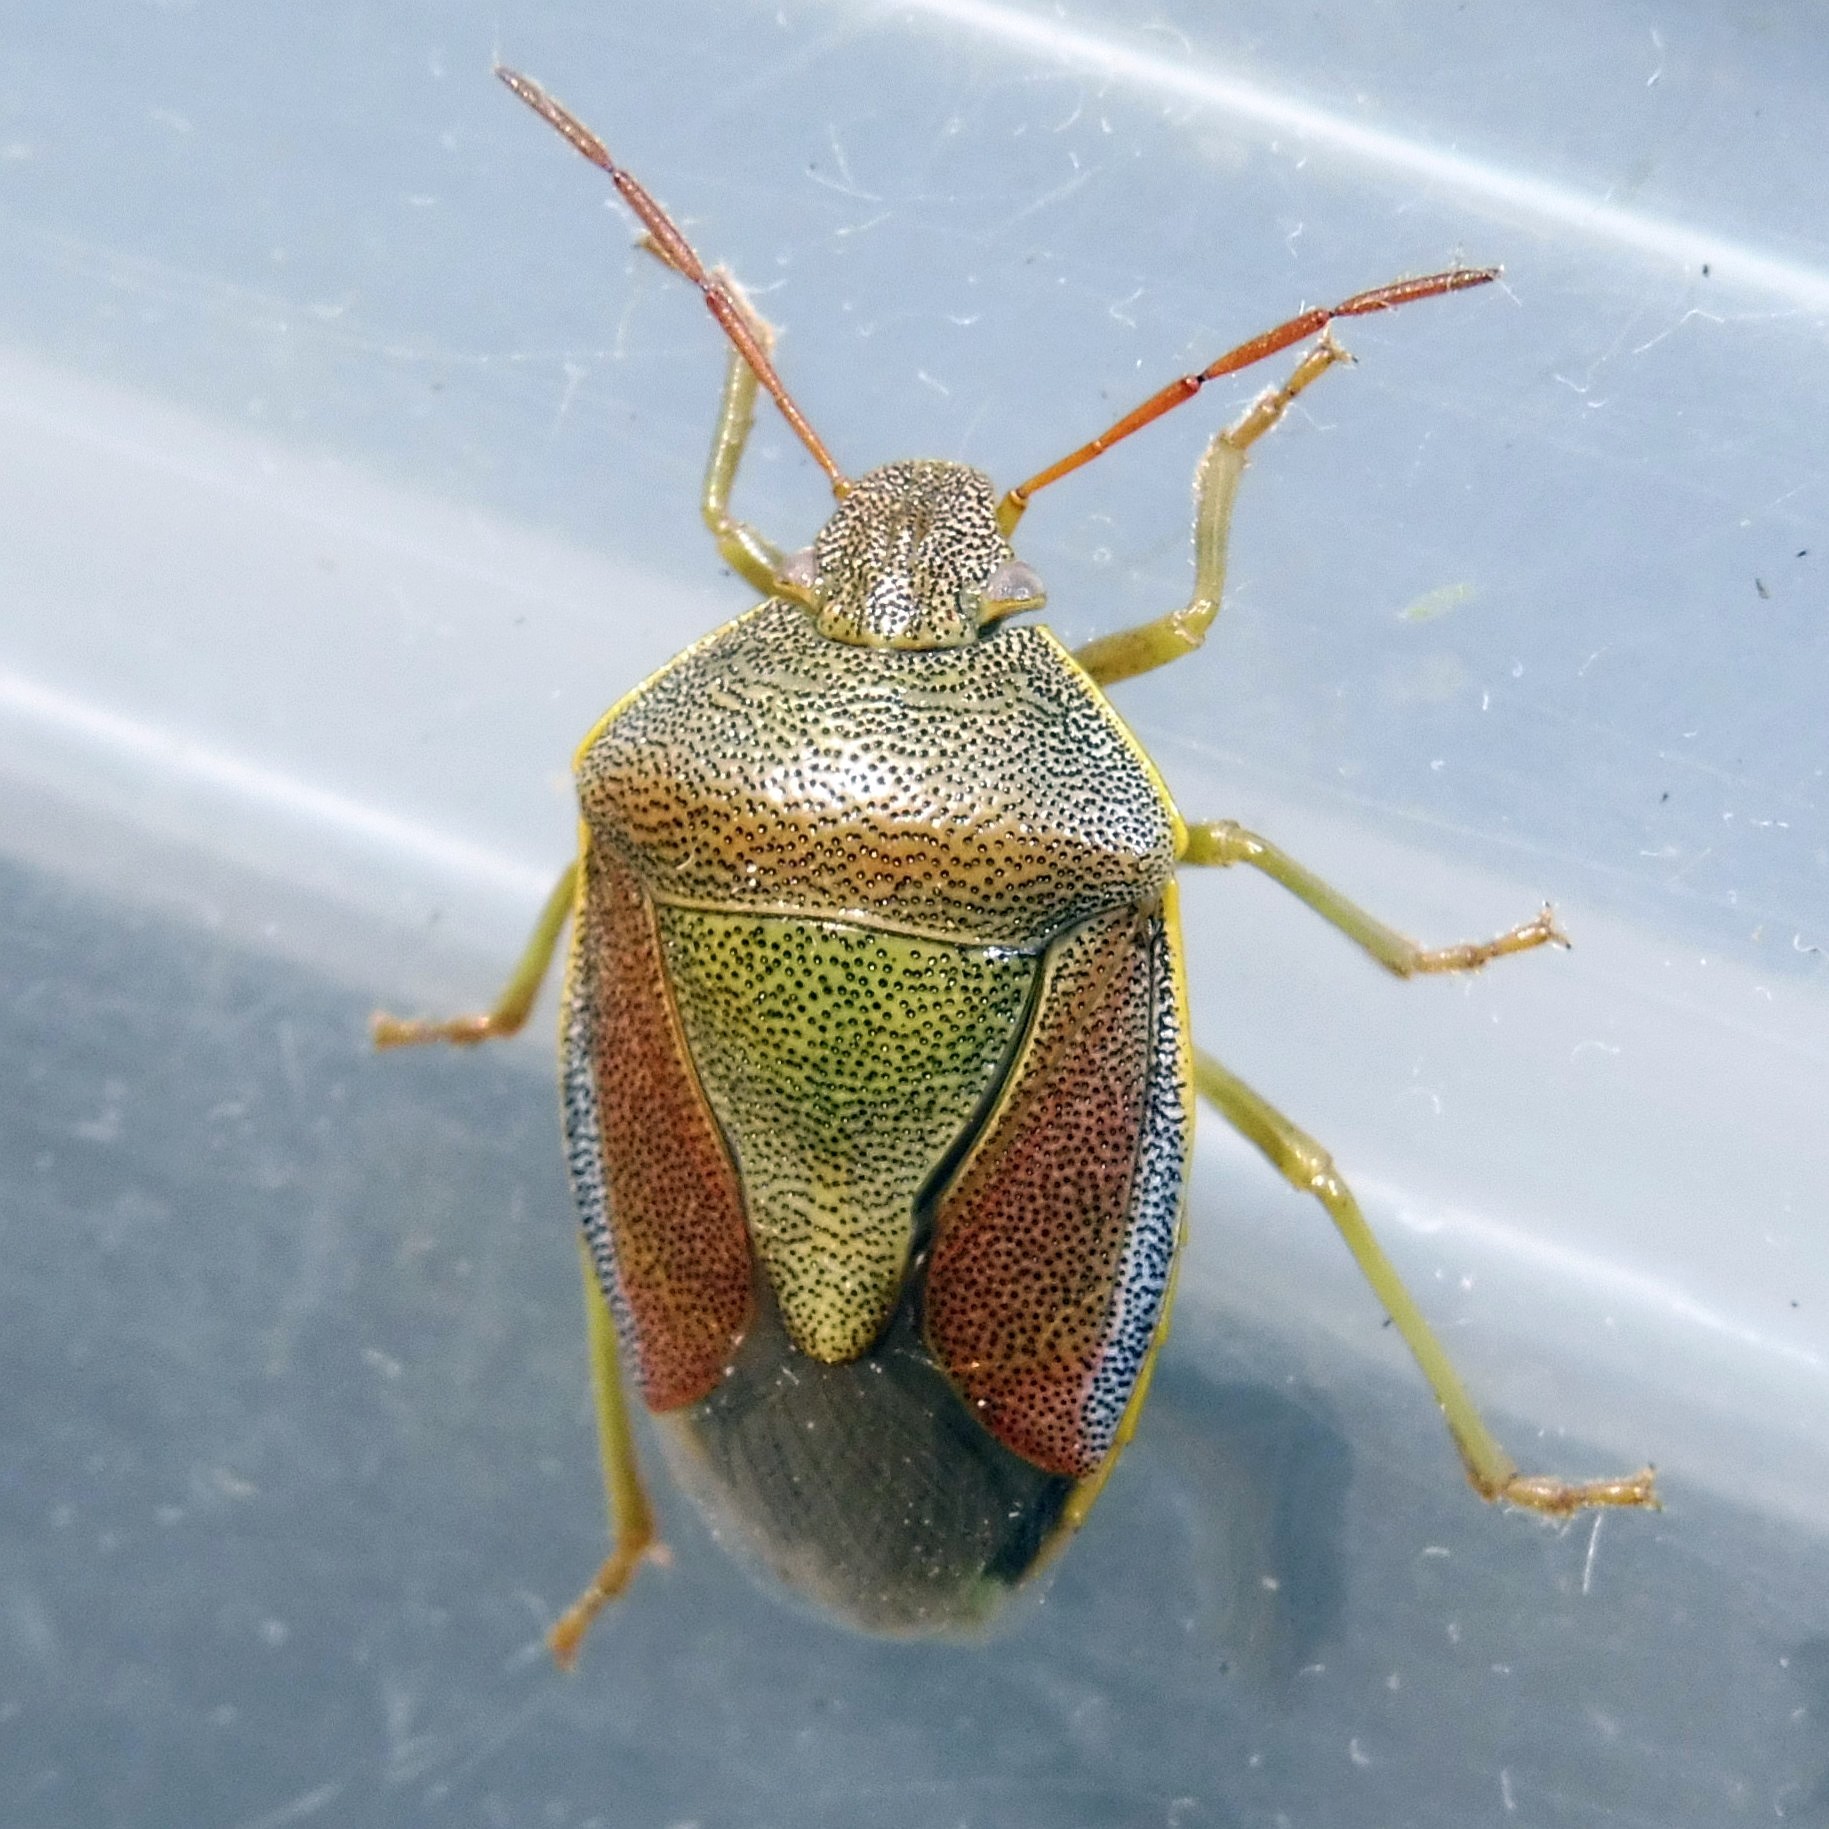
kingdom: Animalia
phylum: Arthropoda
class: Insecta
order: Hemiptera
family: Pentatomidae
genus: Piezodorus
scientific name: Piezodorus lituratus
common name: Stink bug
